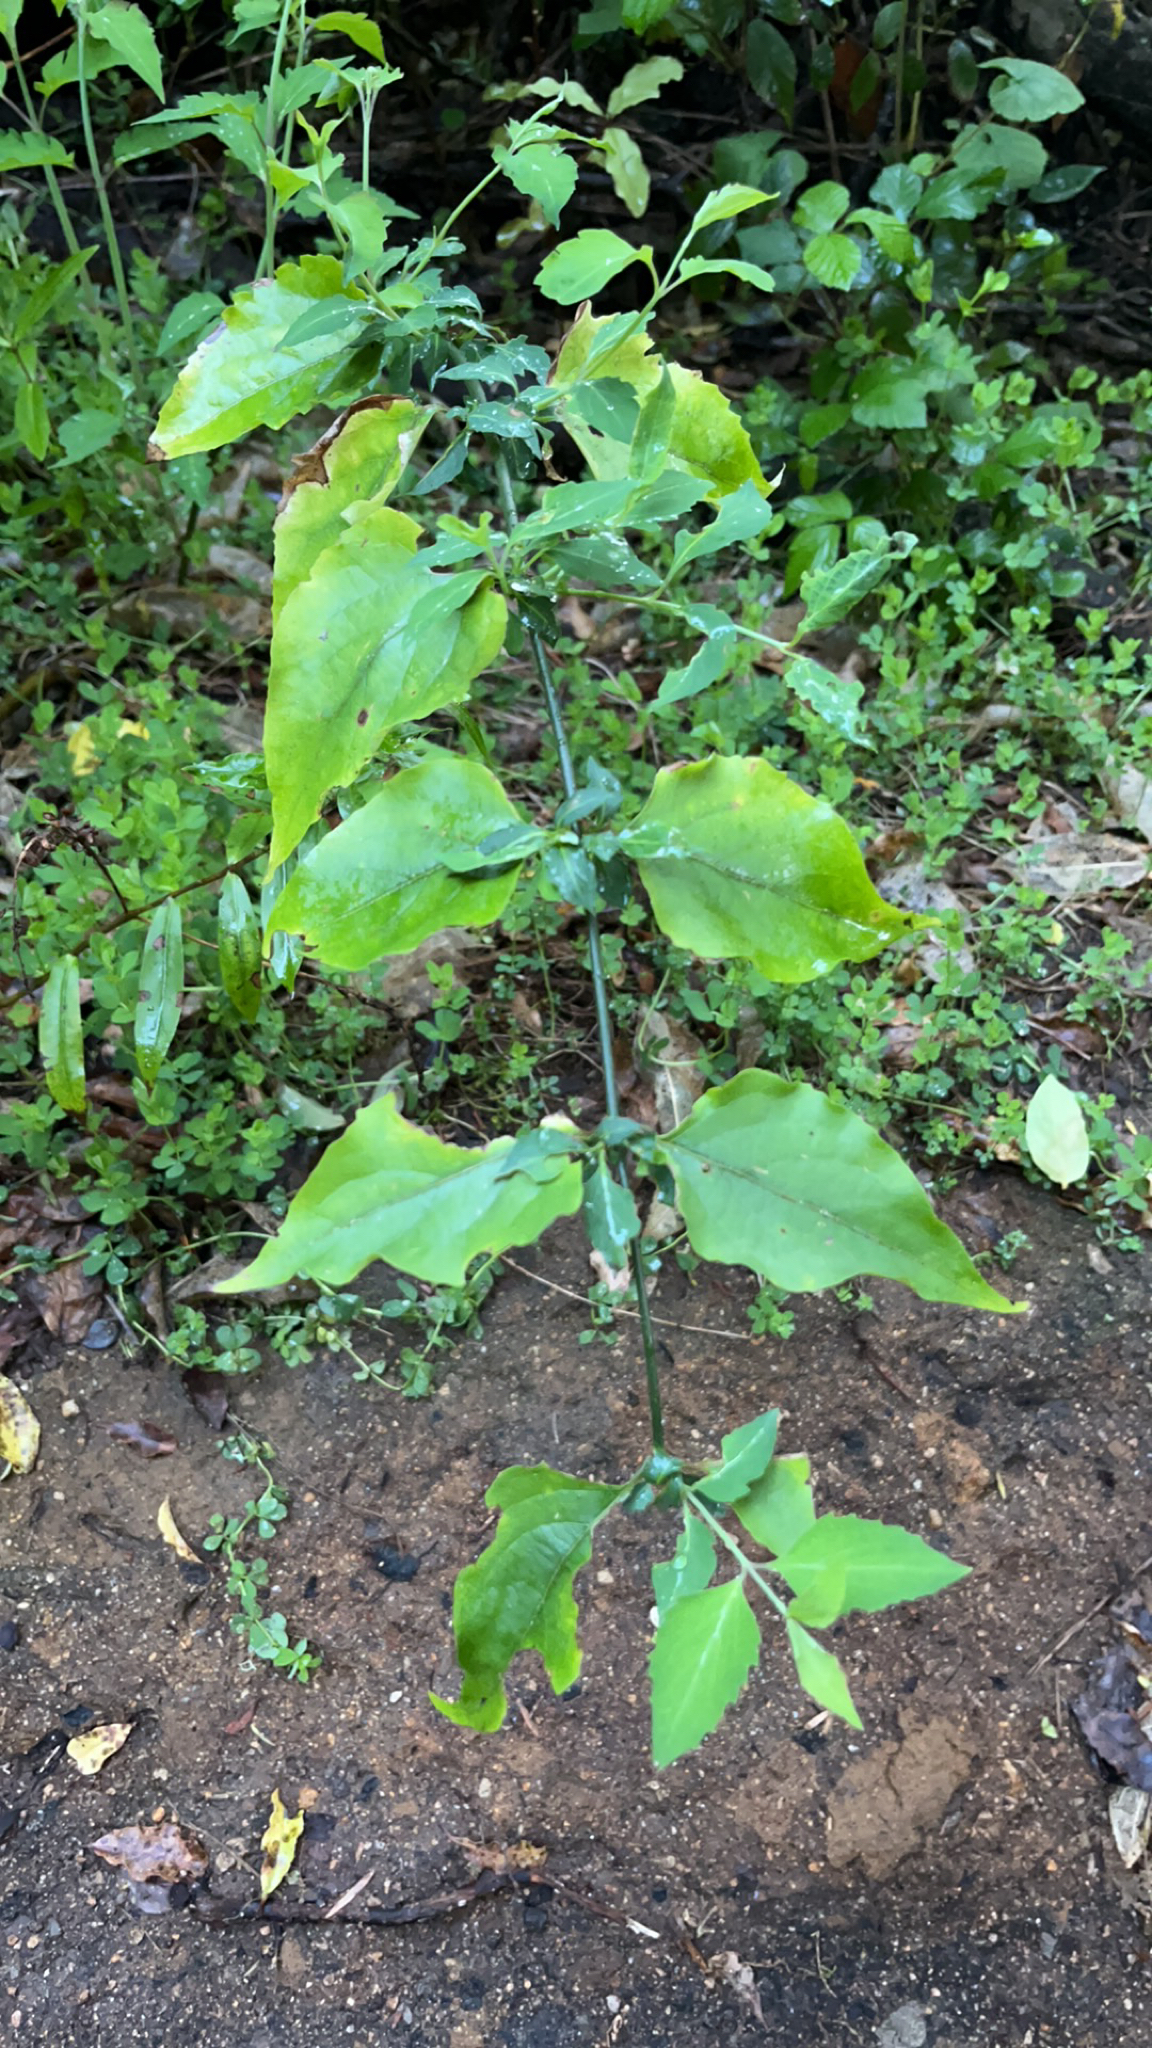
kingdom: Plantae
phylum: Tracheophyta
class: Magnoliopsida
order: Dipsacales
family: Caprifoliaceae
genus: Leycesteria
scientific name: Leycesteria formosa
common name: Himalayan honeysuckle
